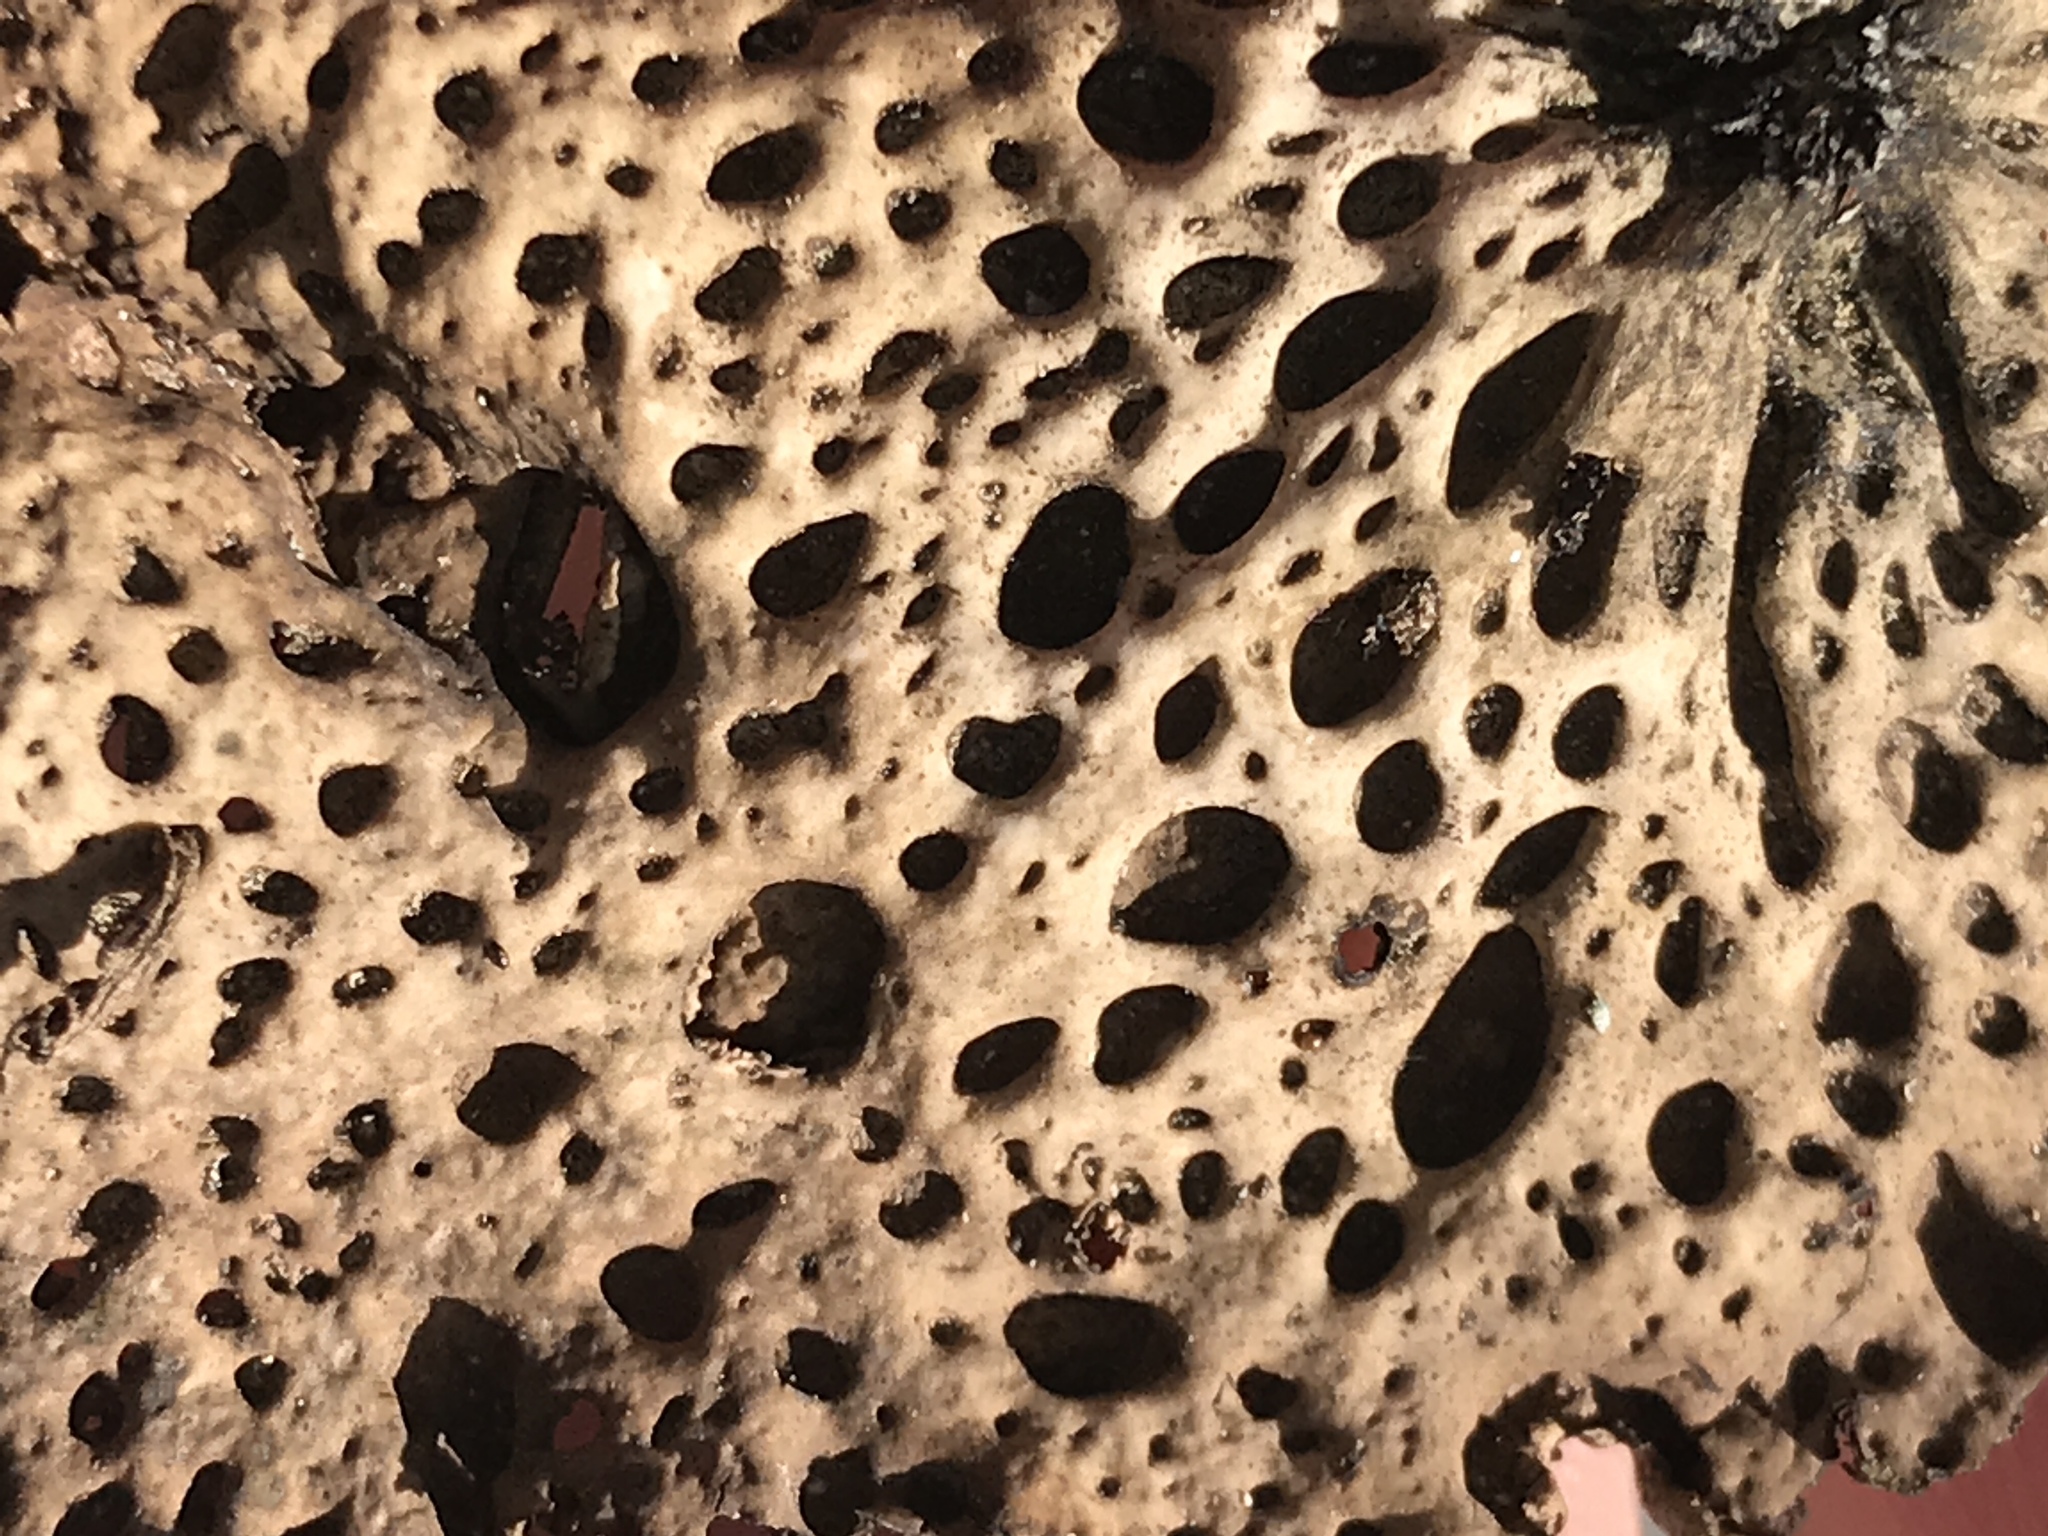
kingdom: Fungi
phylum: Ascomycota
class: Lecanoromycetes
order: Umbilicariales
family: Umbilicariaceae
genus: Lasallia
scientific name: Lasallia papulosa
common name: Common toadskin lichen
